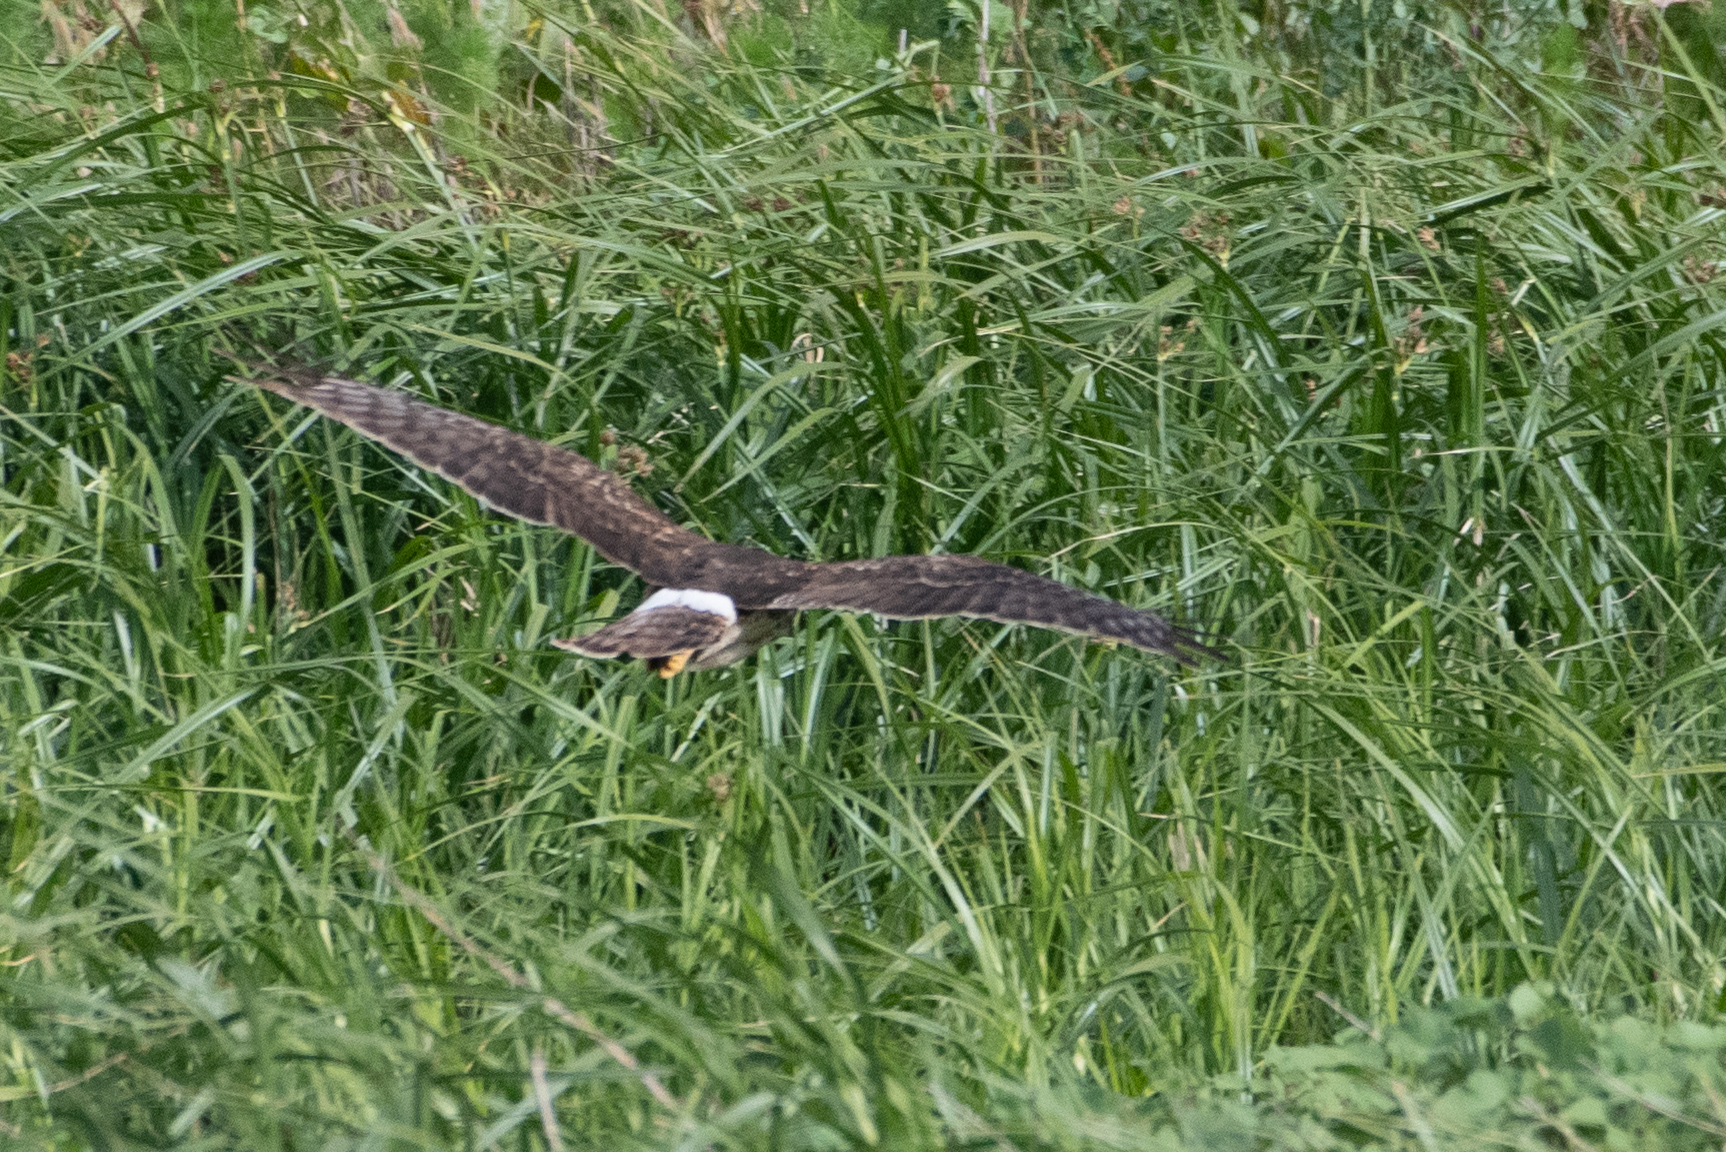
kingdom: Animalia
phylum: Chordata
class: Aves
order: Accipitriformes
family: Accipitridae
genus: Circus
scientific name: Circus cyaneus
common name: Hen harrier
